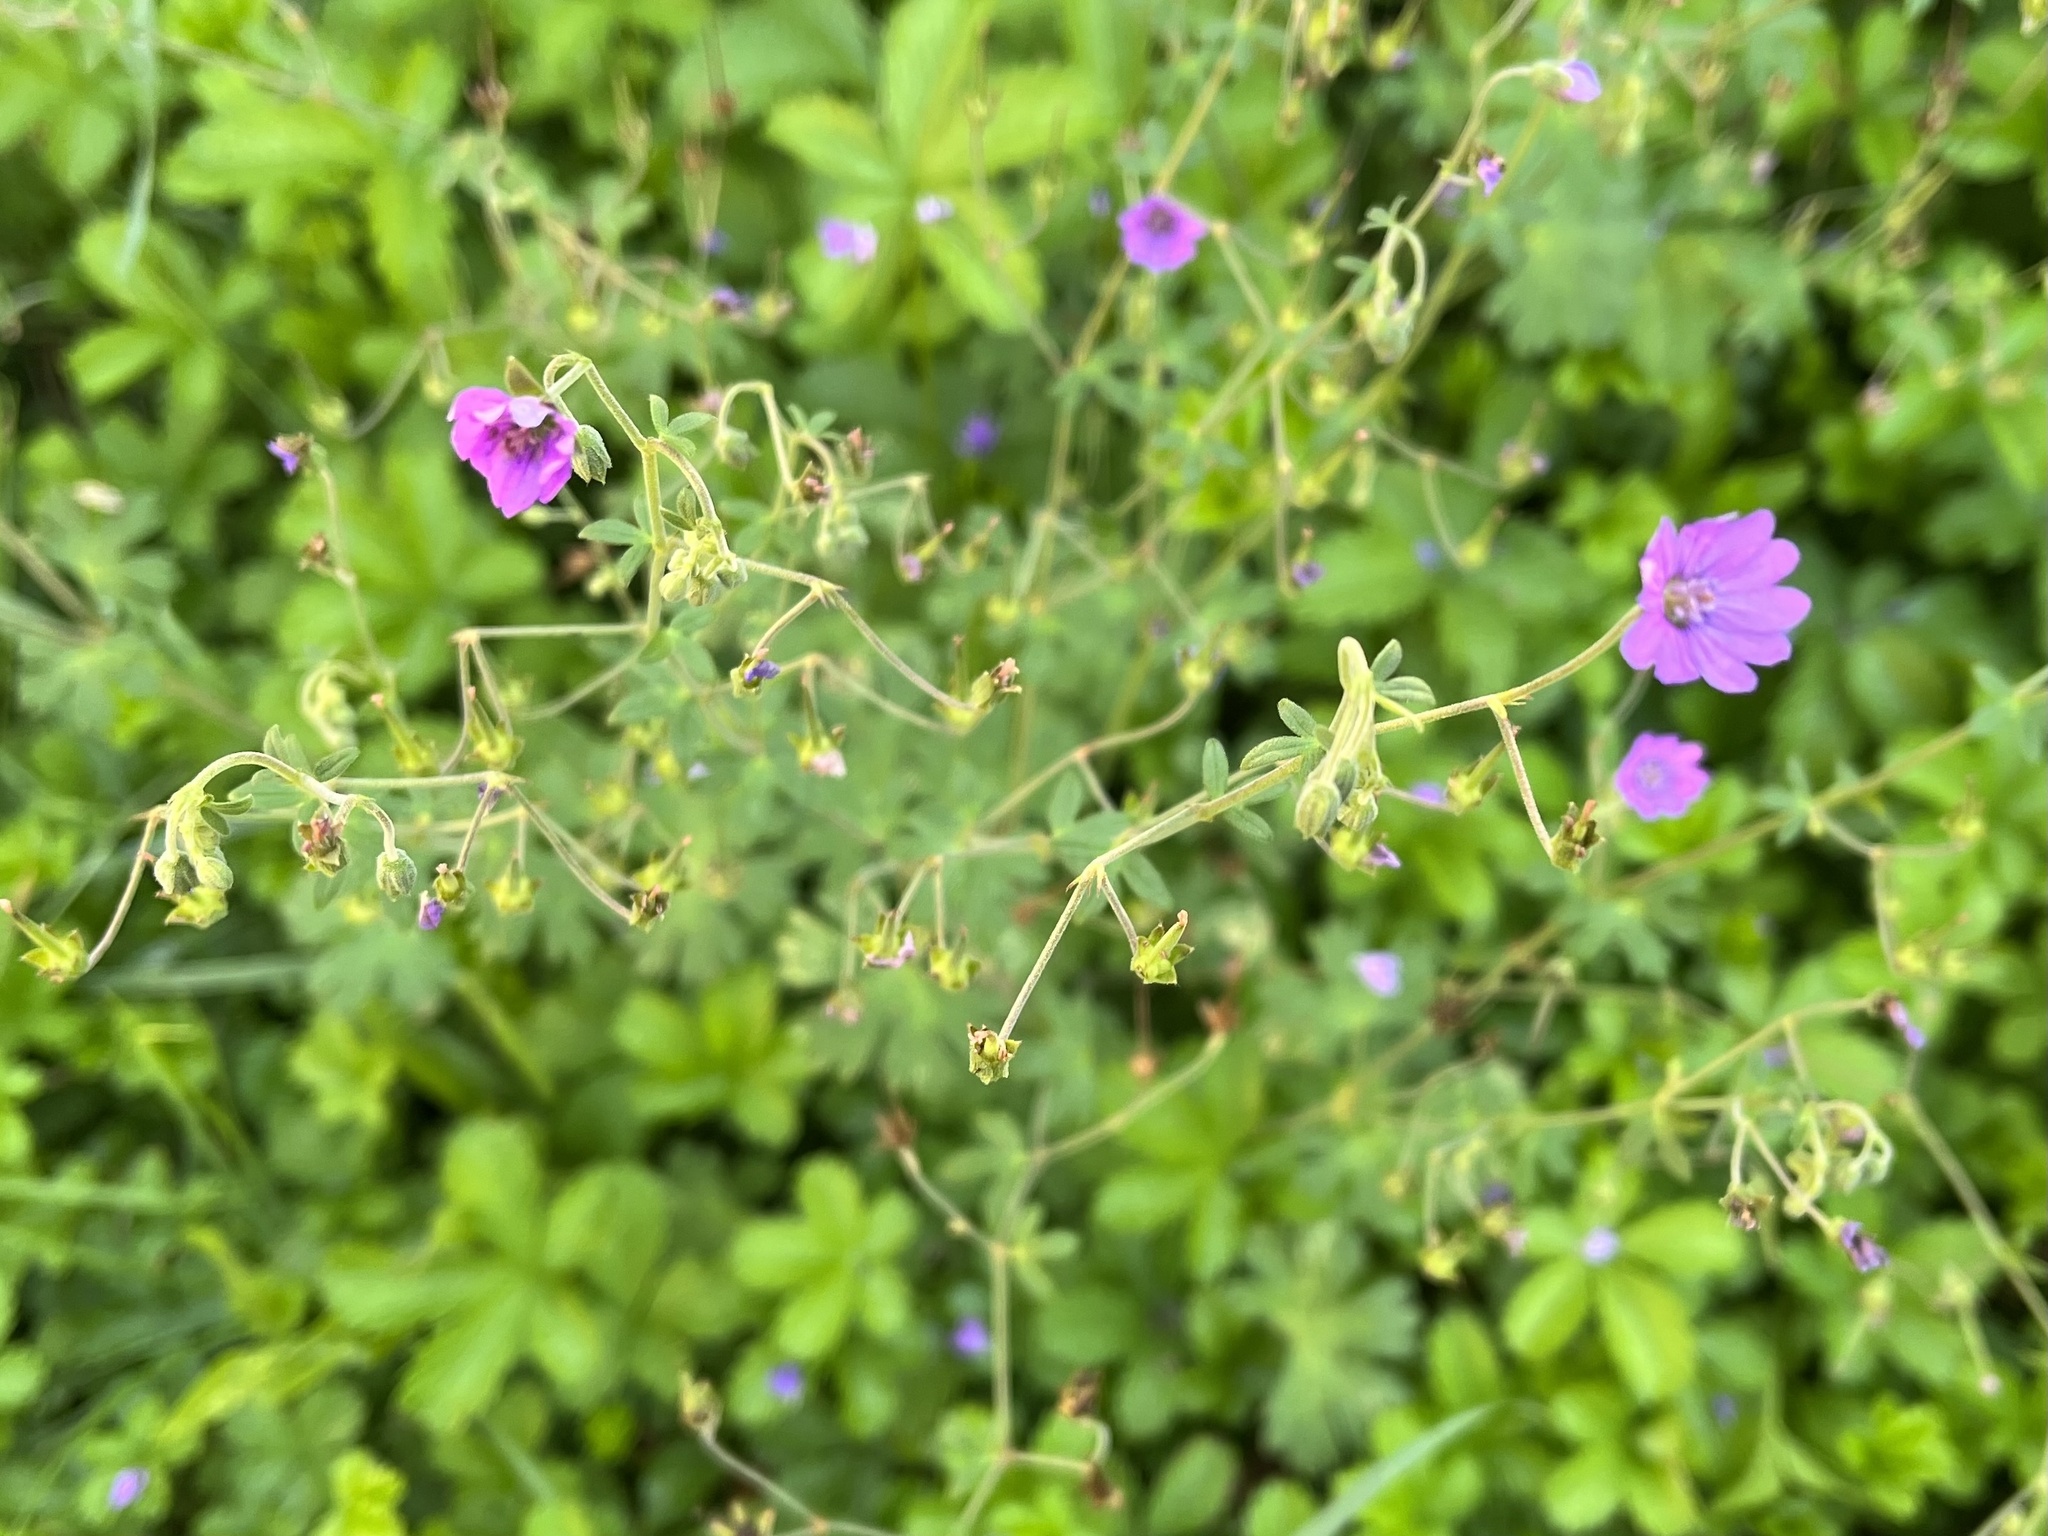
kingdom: Plantae
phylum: Tracheophyta
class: Magnoliopsida
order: Geraniales
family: Geraniaceae
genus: Geranium
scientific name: Geranium pyrenaicum
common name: Hedgerow crane's-bill
